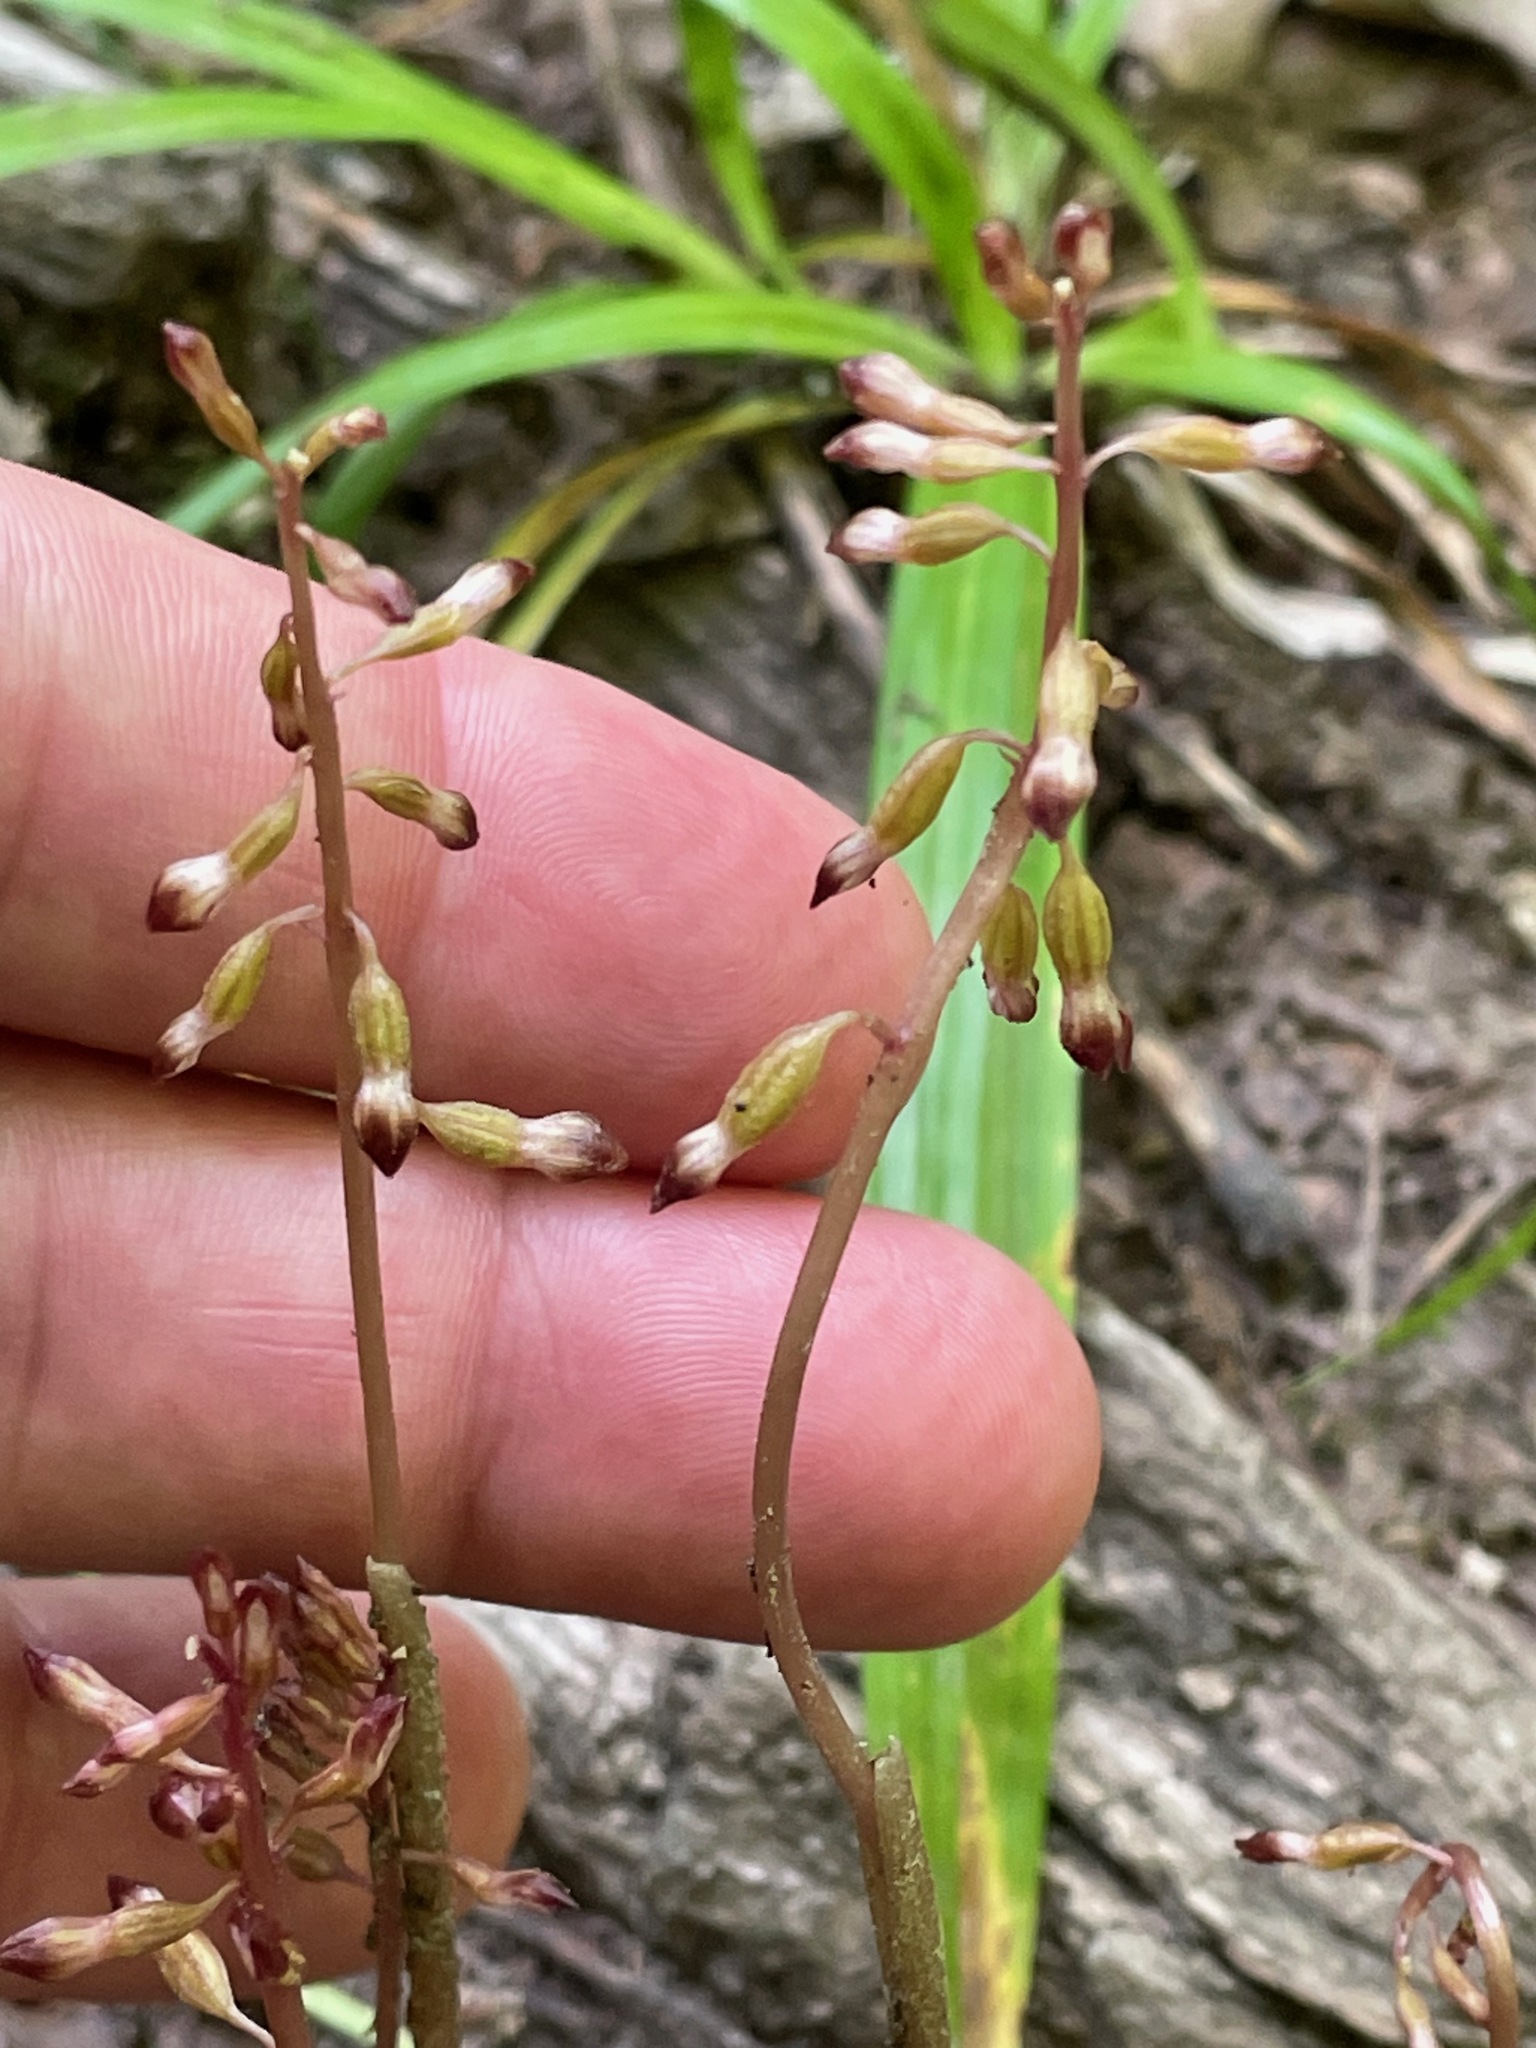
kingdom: Plantae
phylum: Tracheophyta
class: Liliopsida
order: Asparagales
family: Orchidaceae
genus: Corallorhiza
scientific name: Corallorhiza odontorhiza
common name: Autumn coralroot
